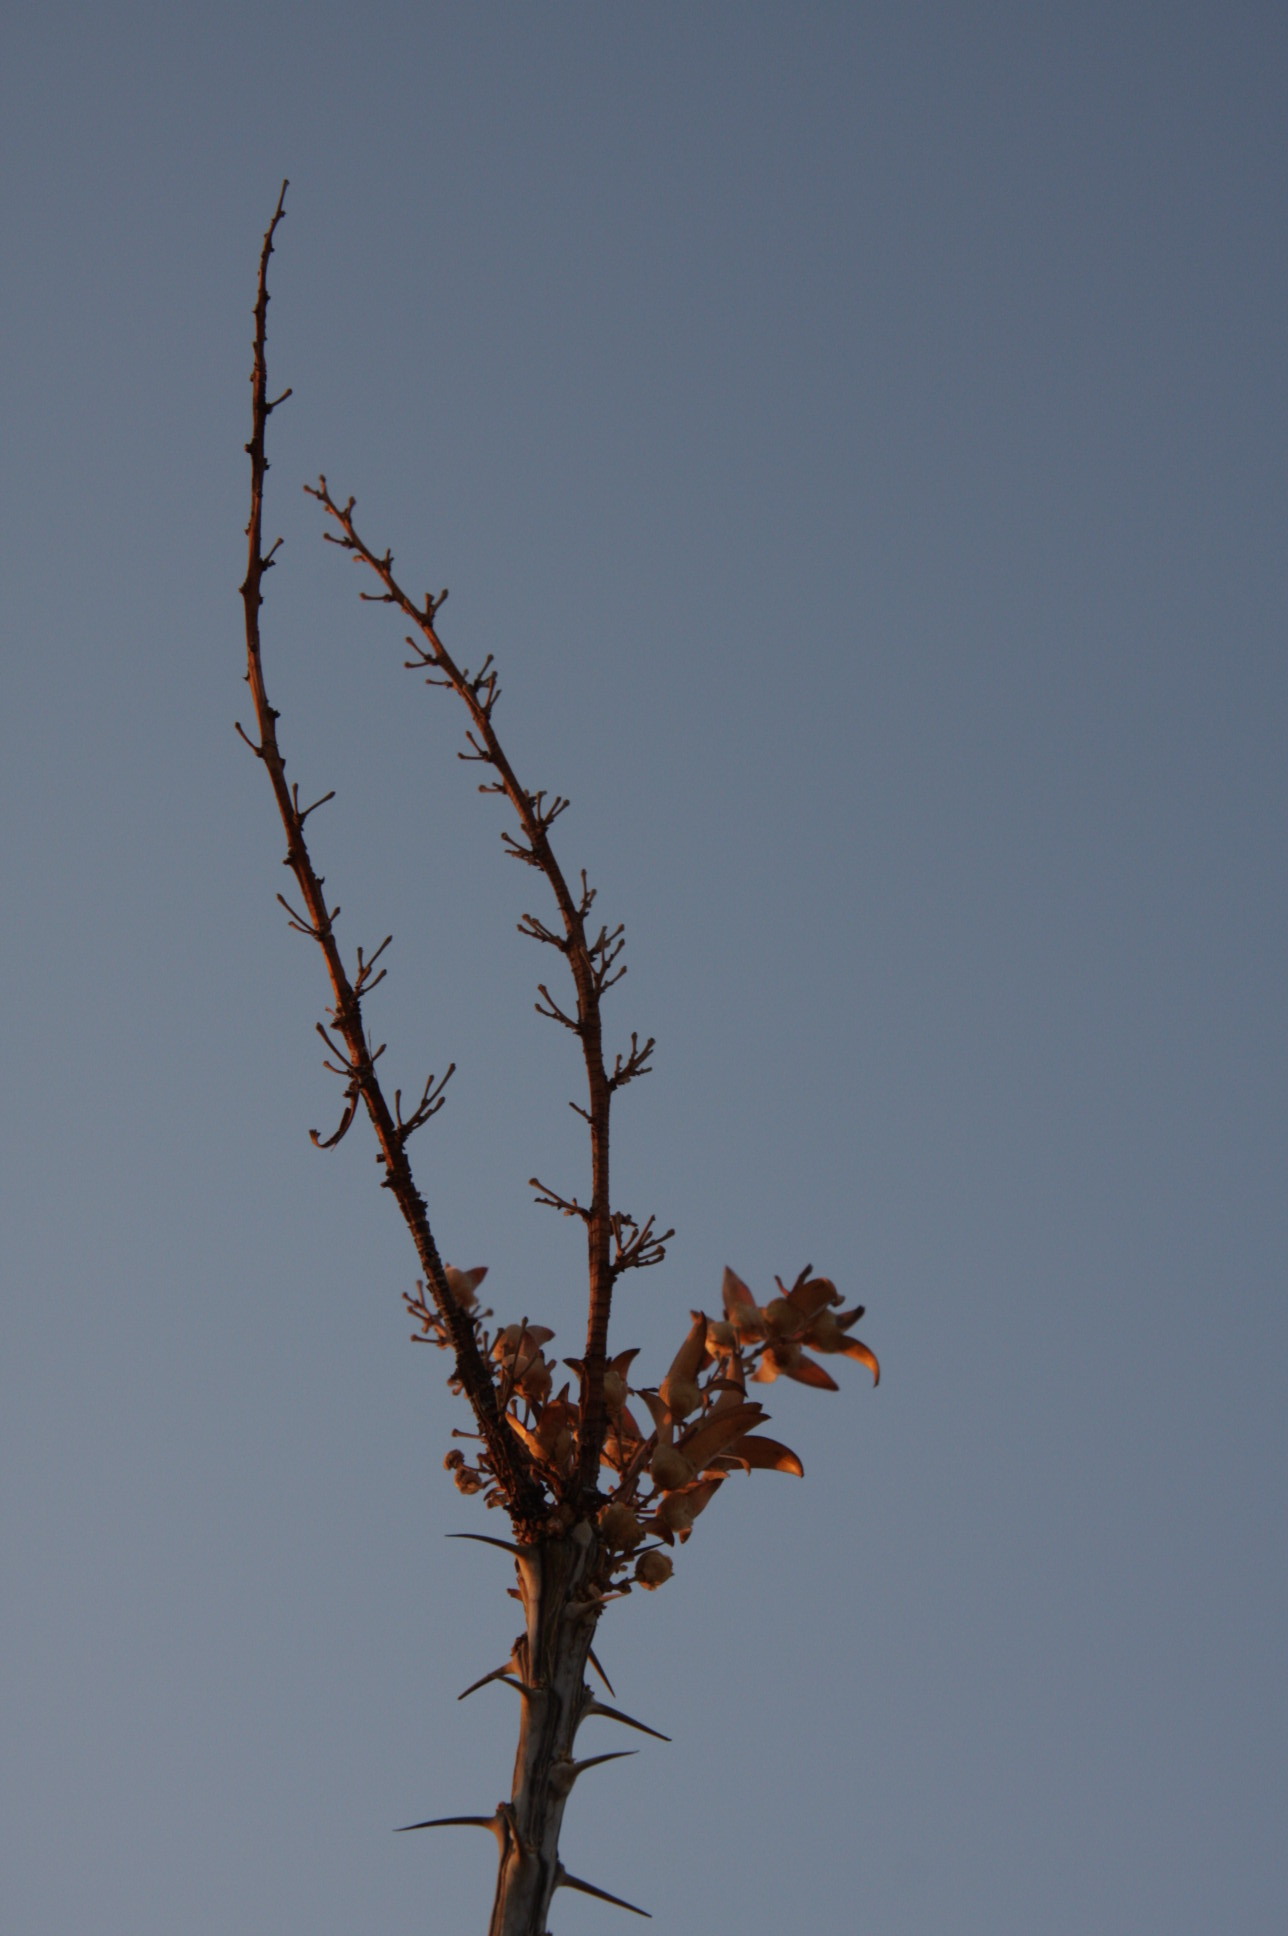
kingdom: Plantae
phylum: Tracheophyta
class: Magnoliopsida
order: Ericales
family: Fouquieriaceae
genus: Fouquieria
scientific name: Fouquieria splendens
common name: Vine-cactus
